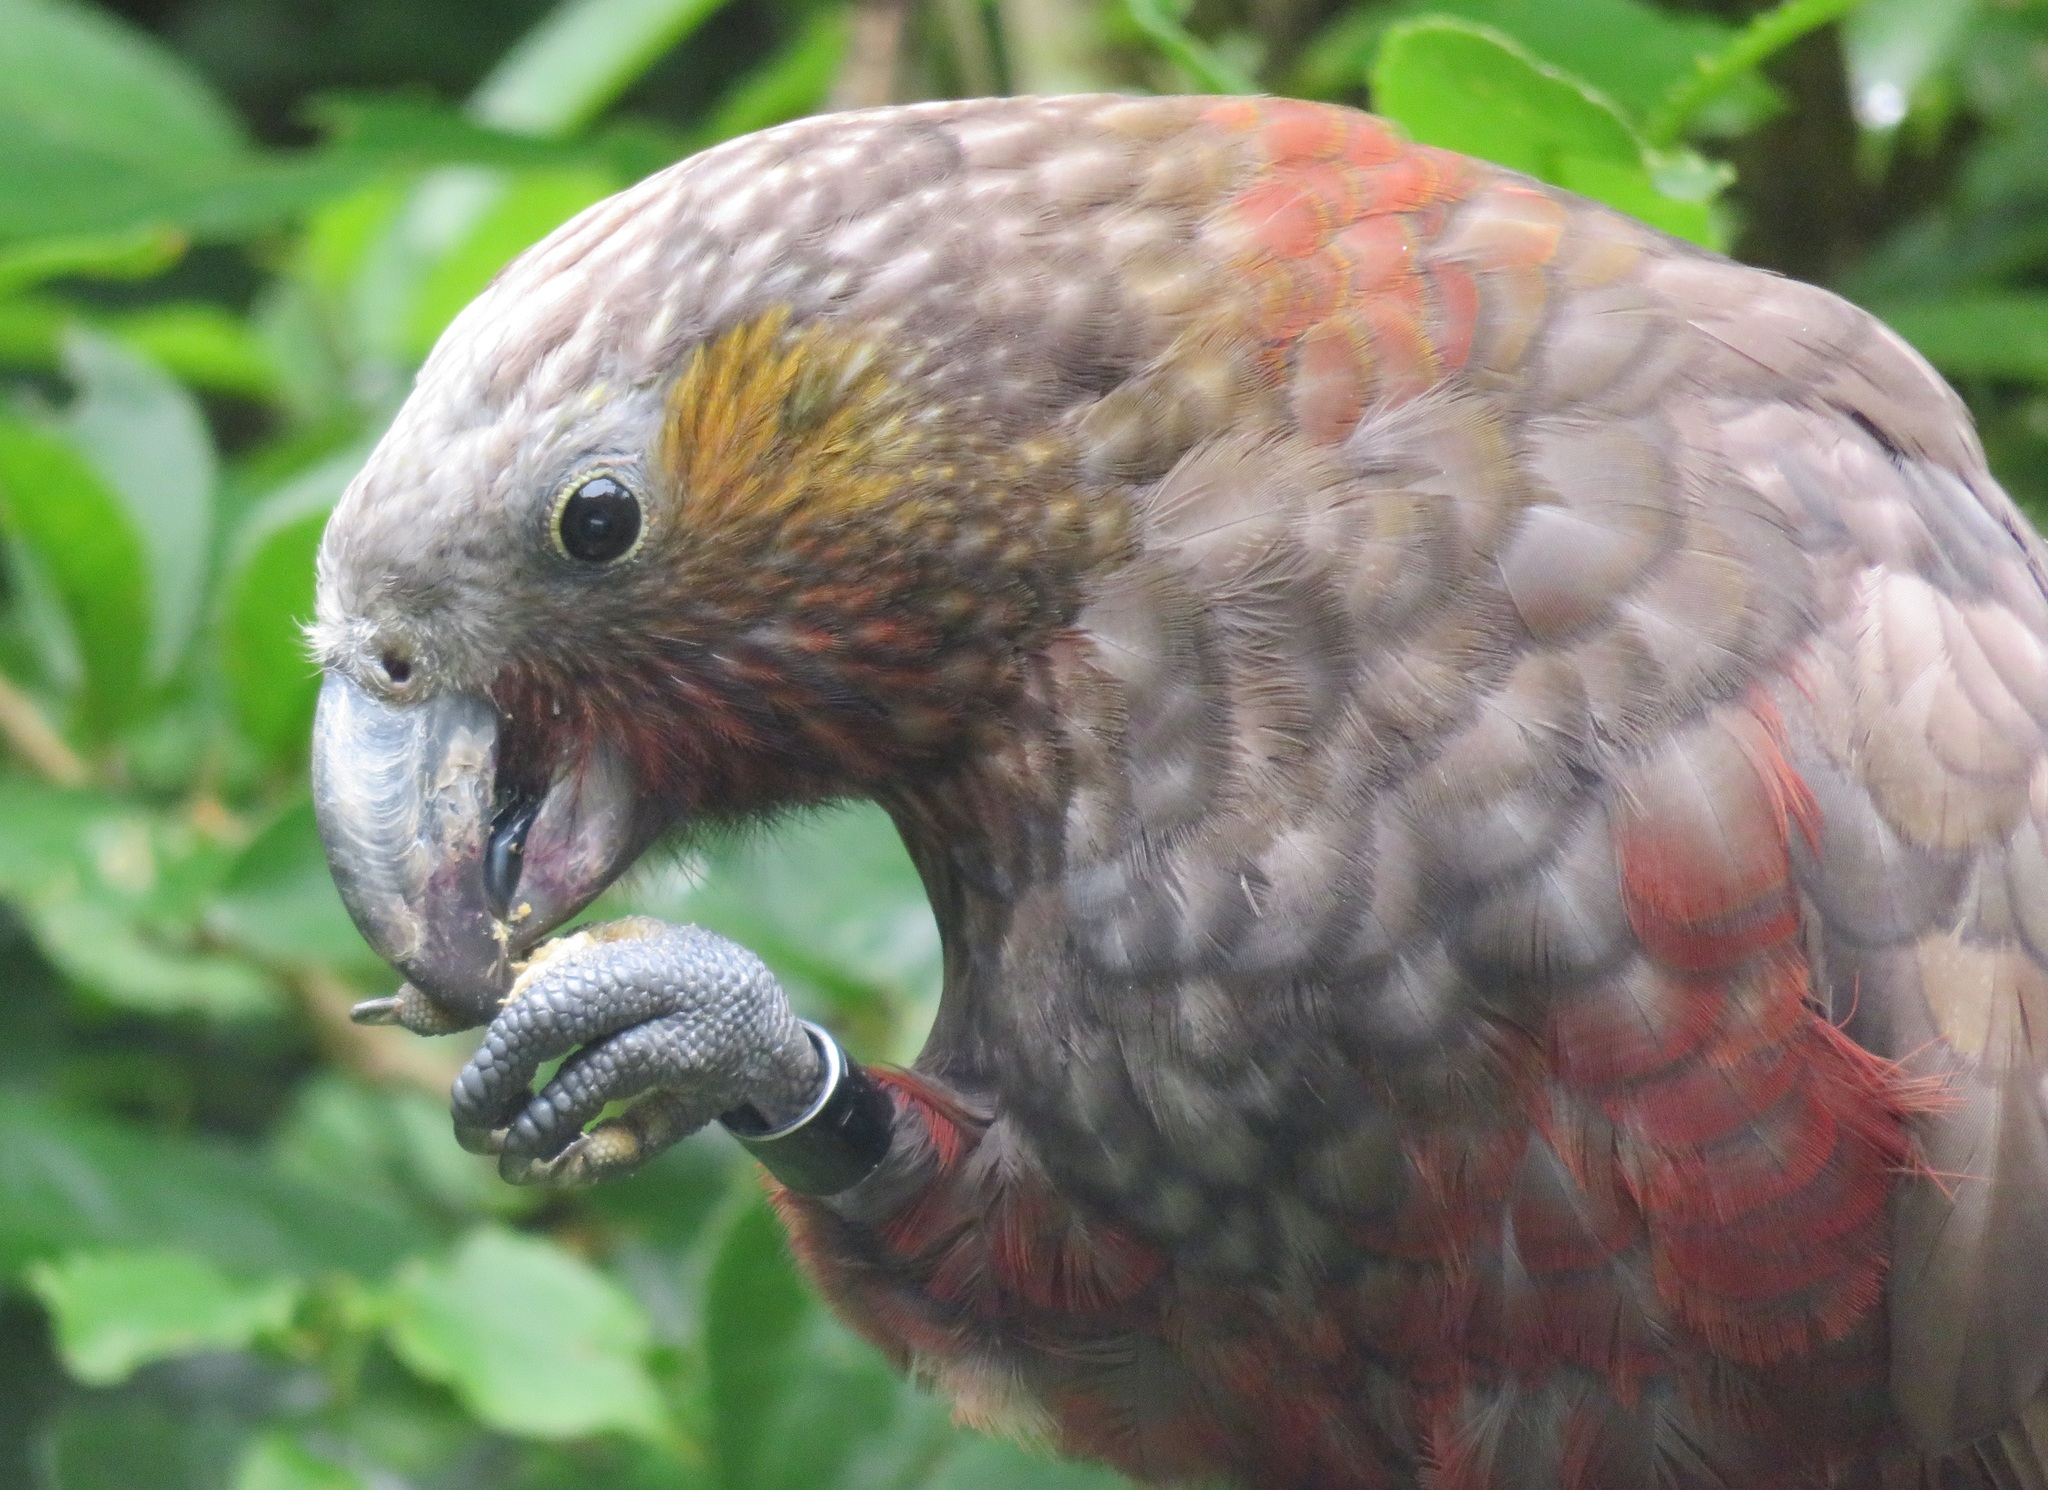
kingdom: Animalia
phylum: Chordata
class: Aves
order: Psittaciformes
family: Psittacidae
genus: Nestor
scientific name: Nestor meridionalis
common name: New zealand kaka
